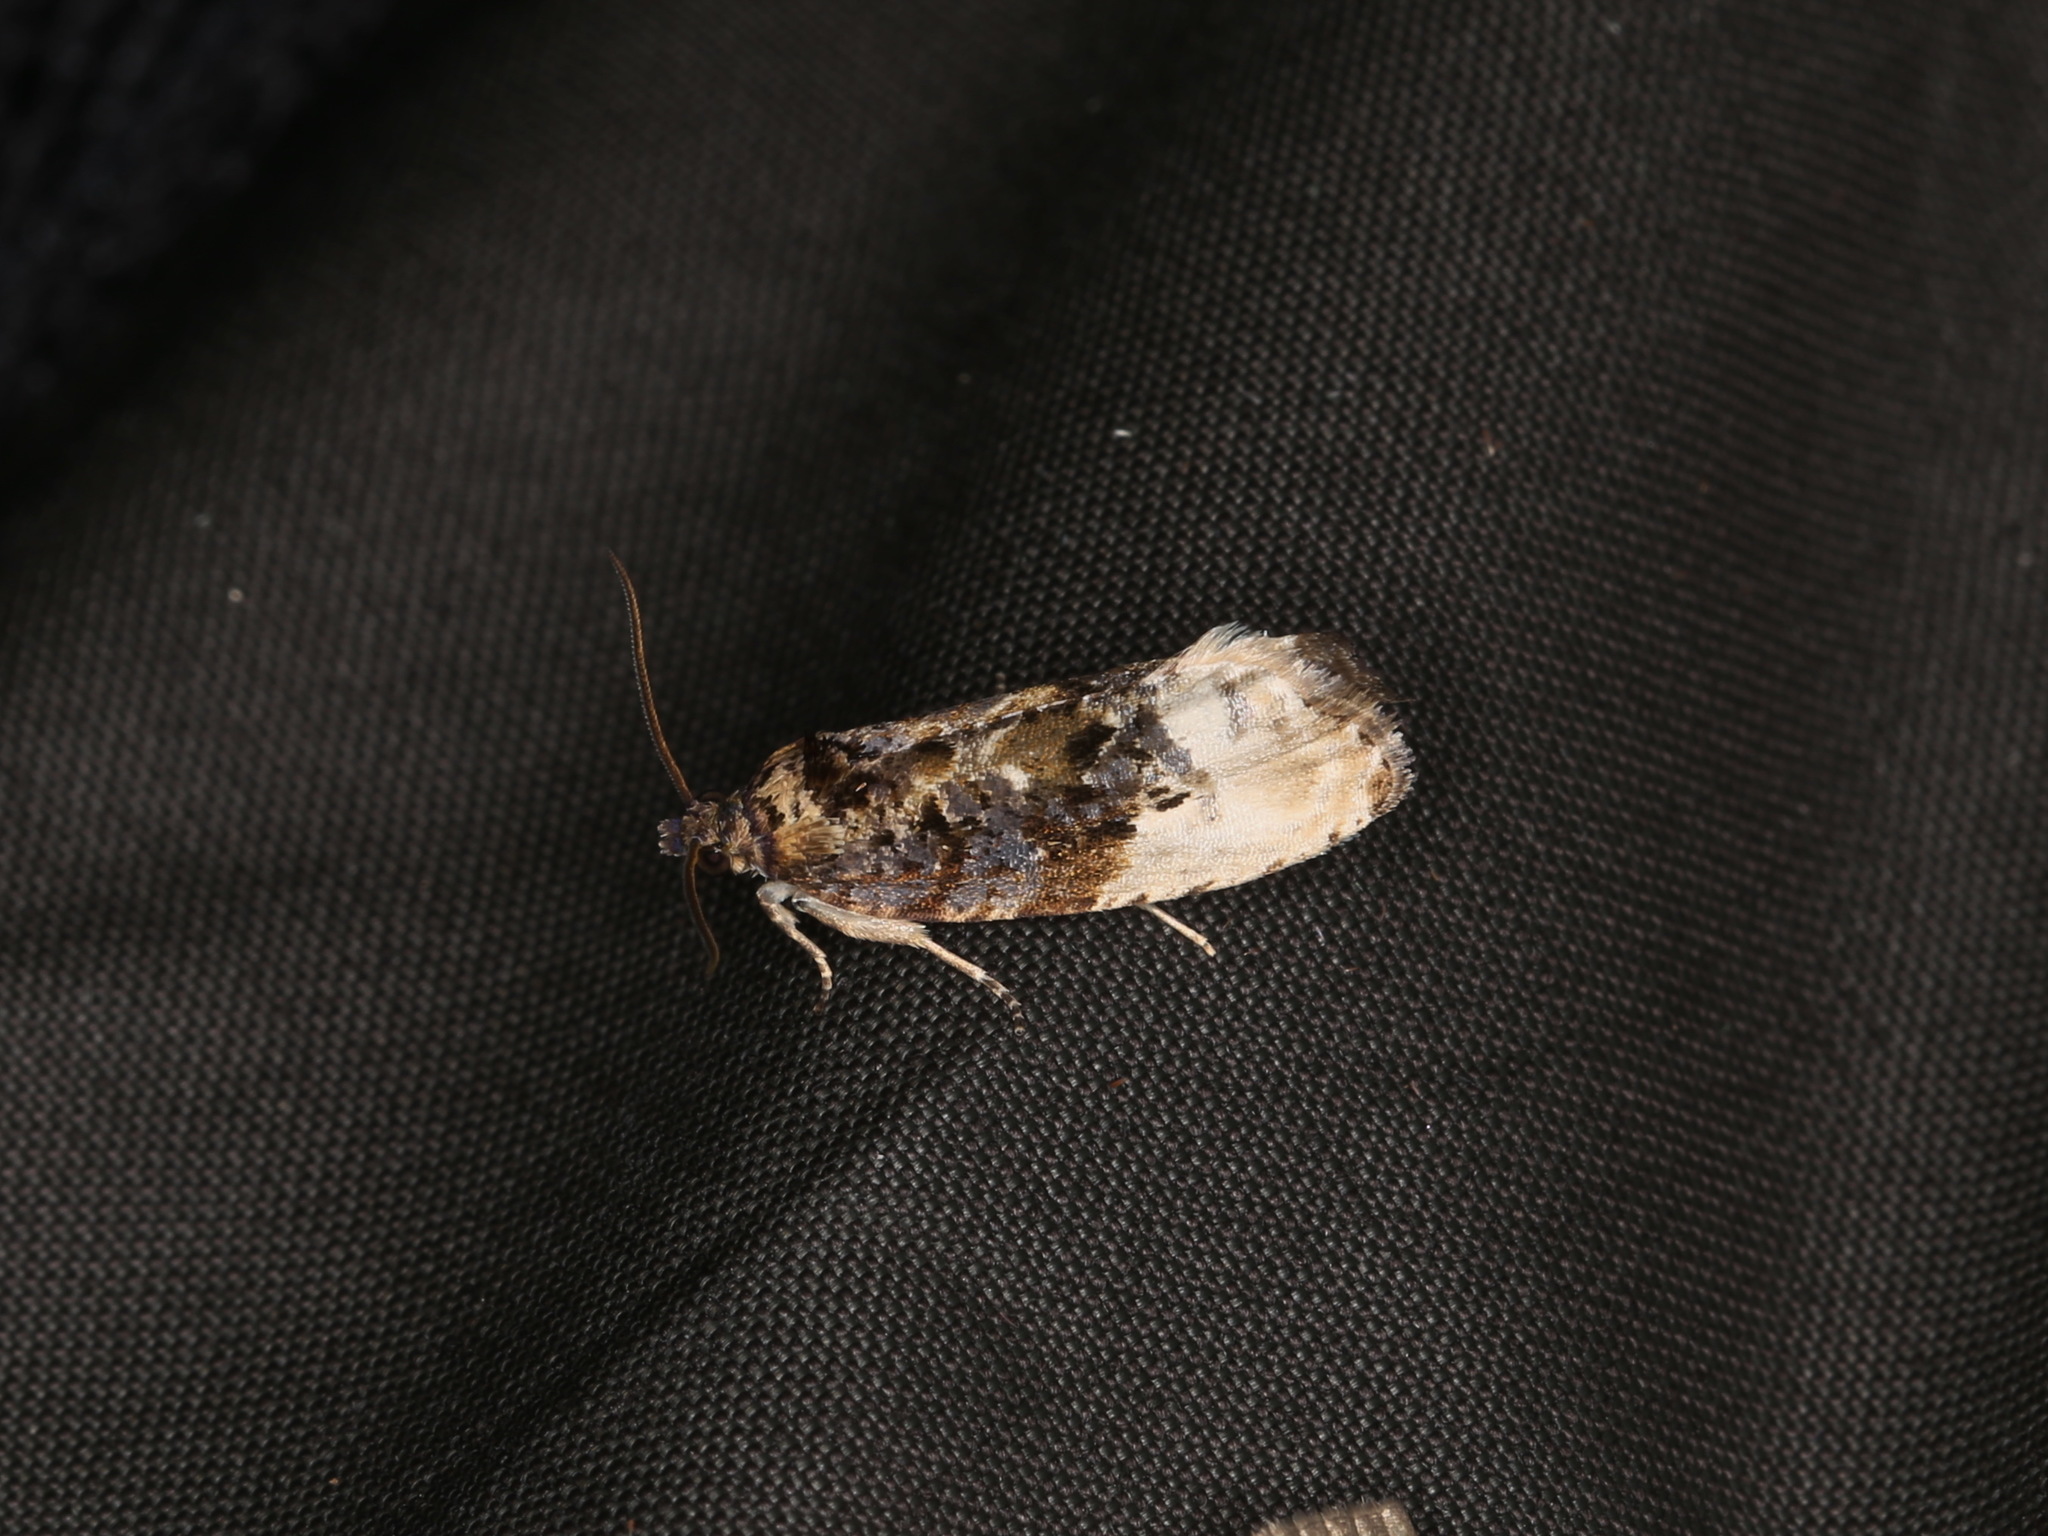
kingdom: Animalia
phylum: Arthropoda
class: Insecta
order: Lepidoptera
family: Tortricidae
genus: Hedya
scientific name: Hedya nubiferana
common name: Marbled orchard tortrix
